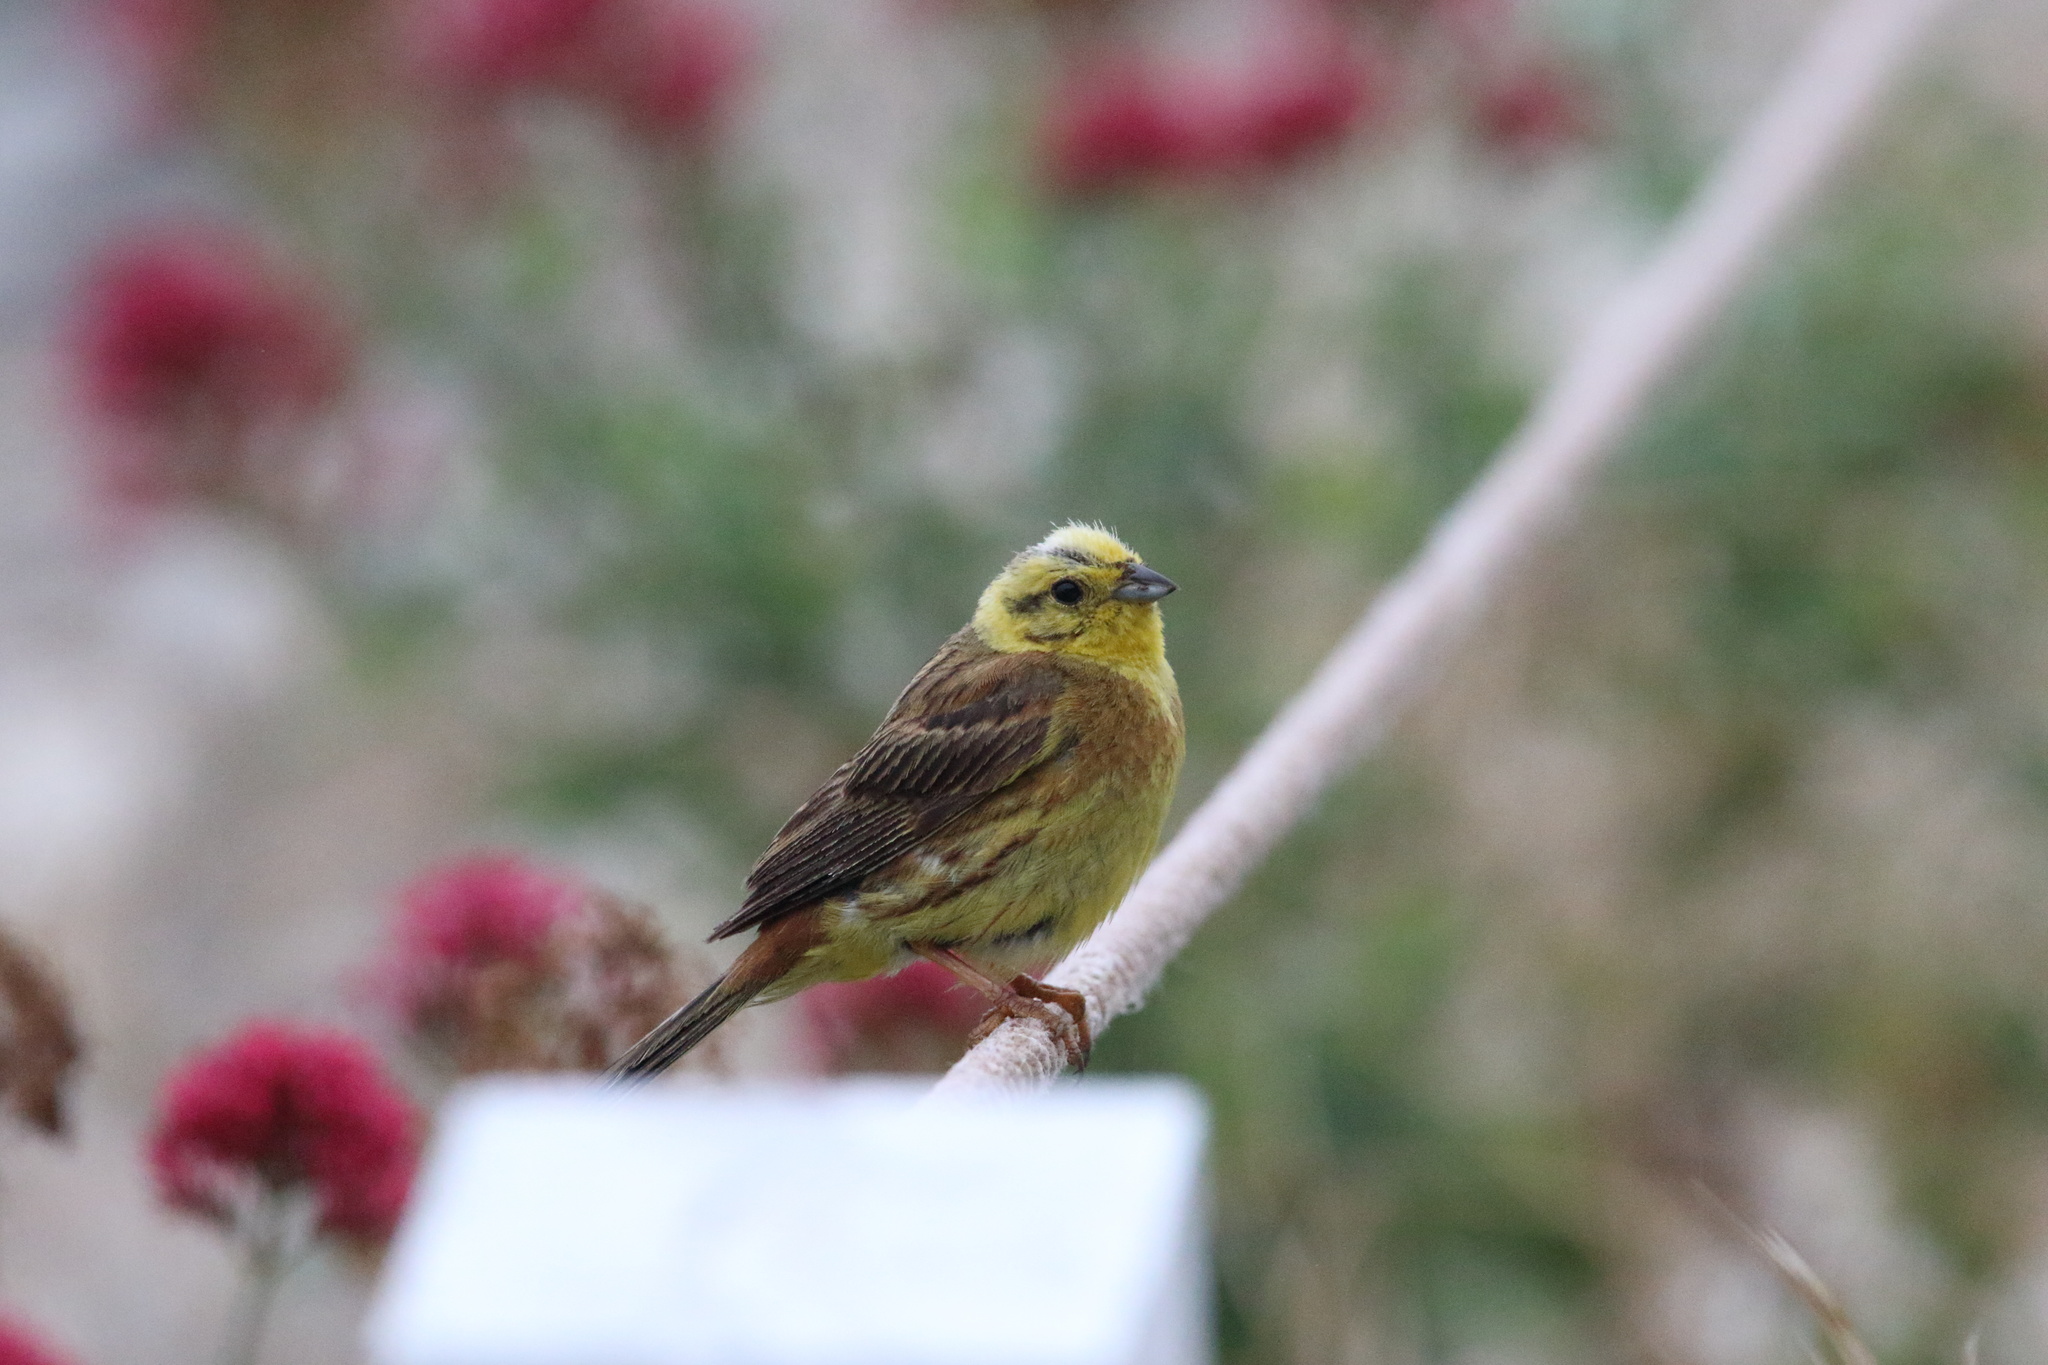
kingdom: Animalia
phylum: Chordata
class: Aves
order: Passeriformes
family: Emberizidae
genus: Emberiza
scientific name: Emberiza citrinella
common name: Yellowhammer
